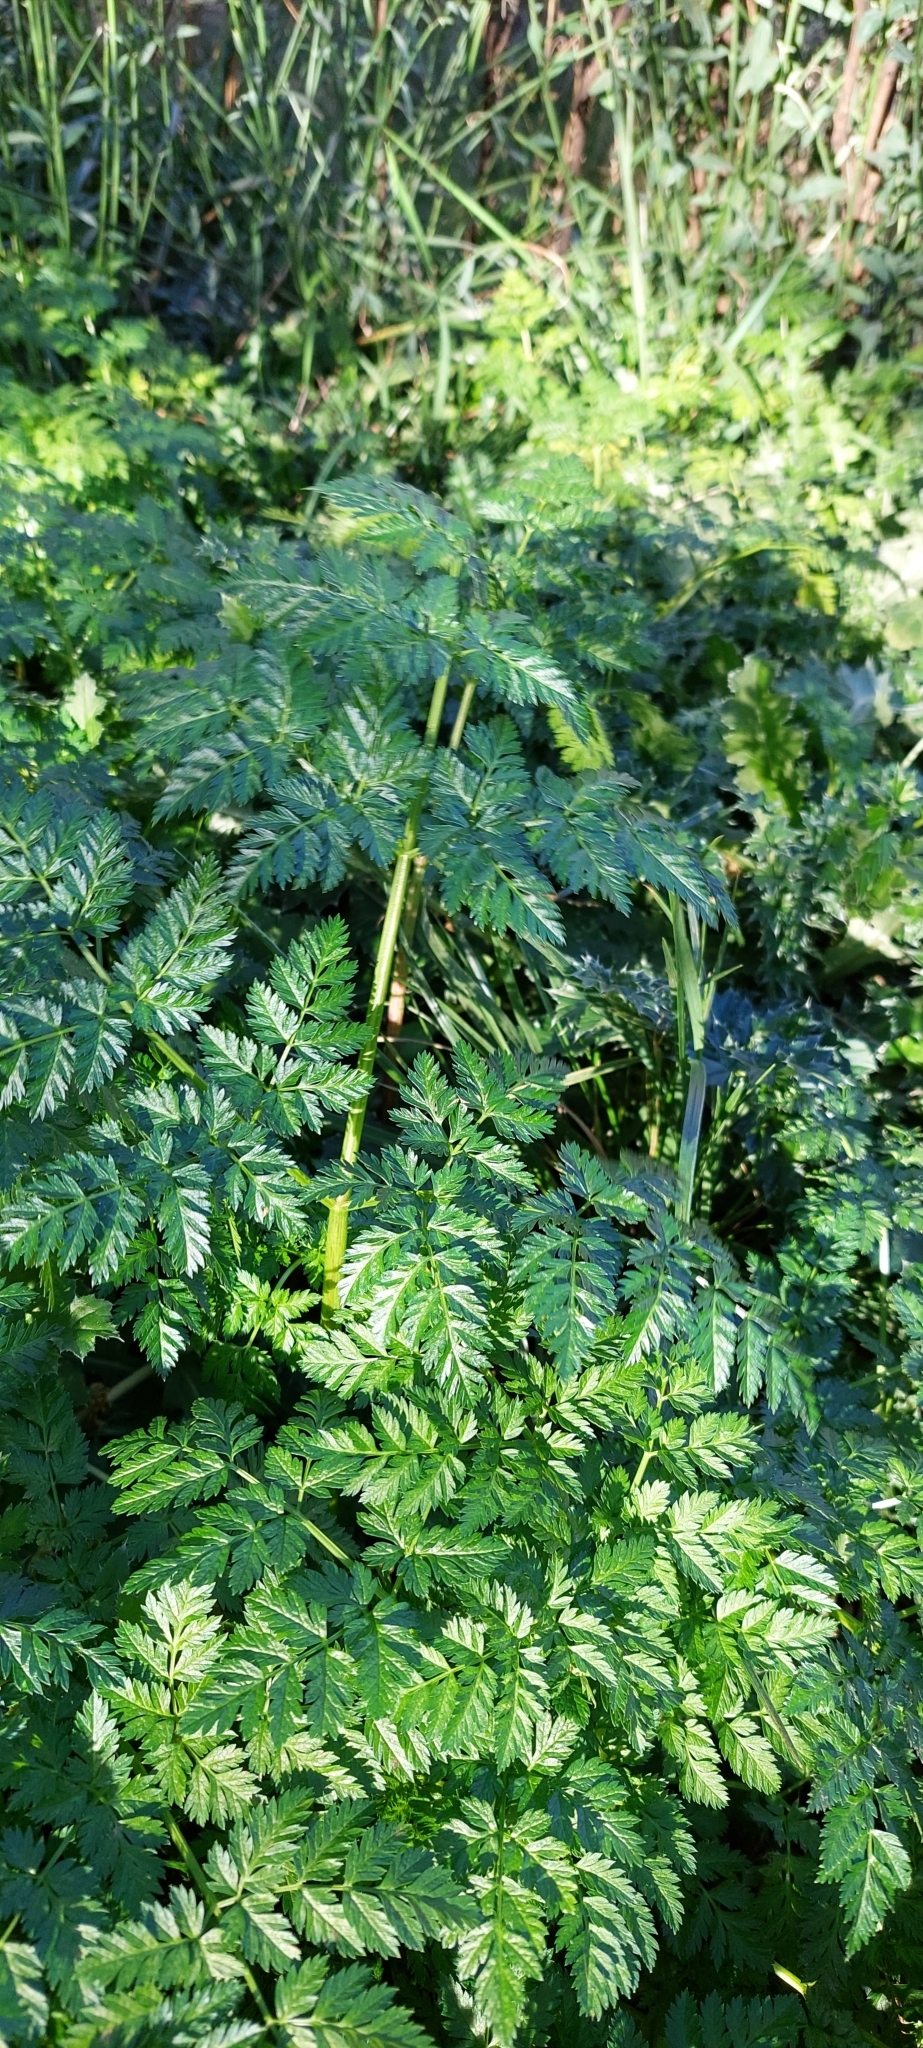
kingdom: Plantae
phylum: Tracheophyta
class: Magnoliopsida
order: Apiales
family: Apiaceae
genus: Conium
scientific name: Conium maculatum
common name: Hemlock
